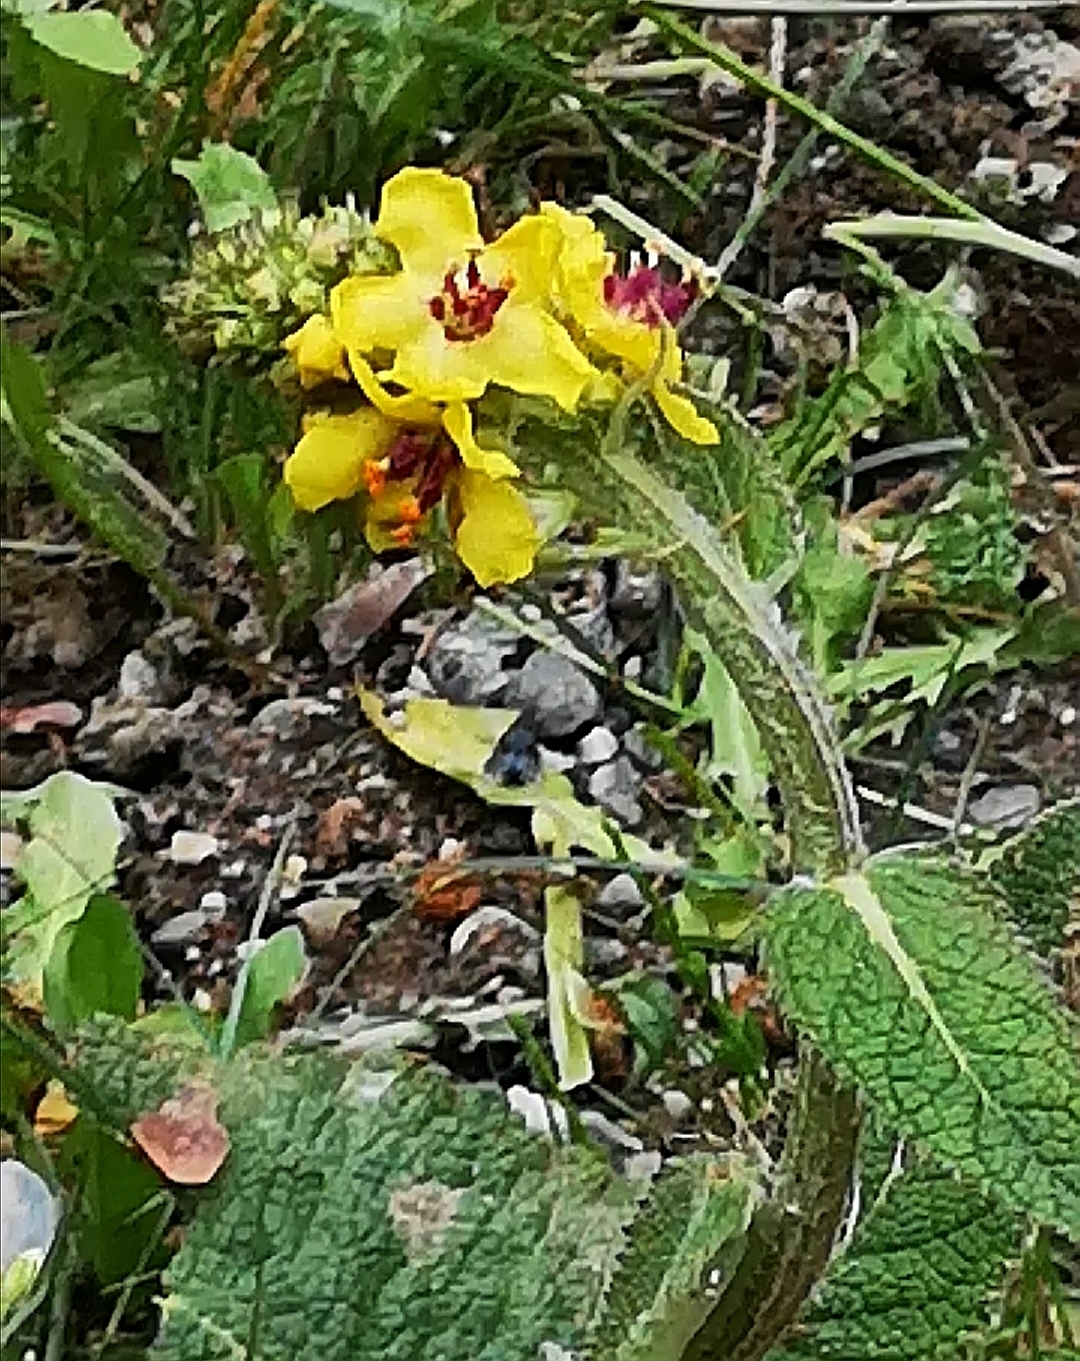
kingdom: Plantae
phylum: Tracheophyta
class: Magnoliopsida
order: Lamiales
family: Scrophulariaceae
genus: Verbascum
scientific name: Verbascum nigrum
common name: Dark mullein
